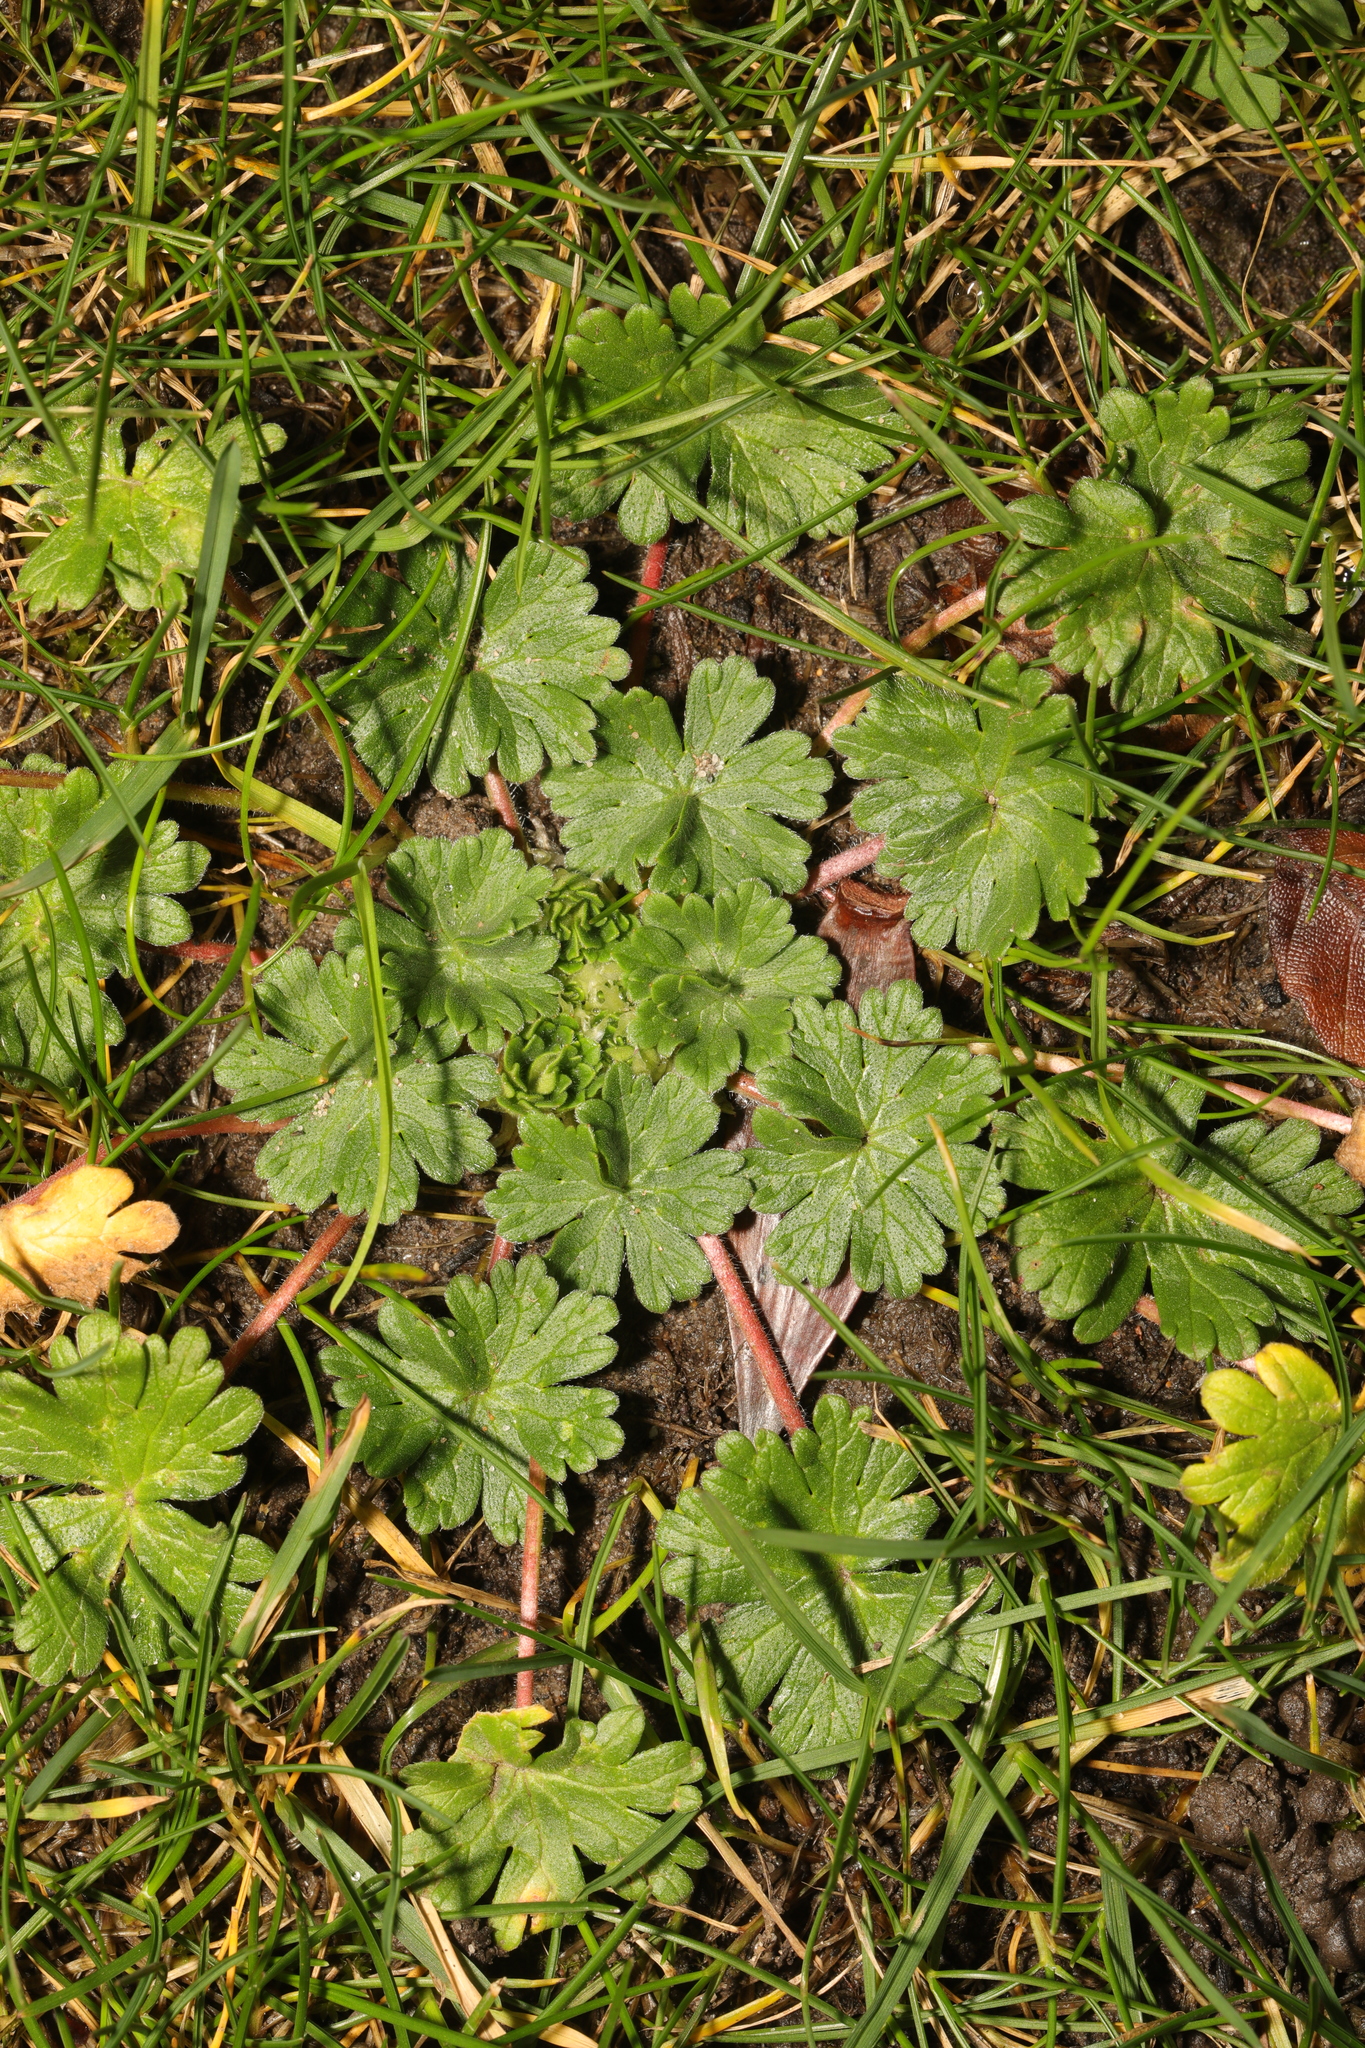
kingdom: Plantae
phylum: Tracheophyta
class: Magnoliopsida
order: Geraniales
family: Geraniaceae
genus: Geranium
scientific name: Geranium molle
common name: Dove's-foot crane's-bill
